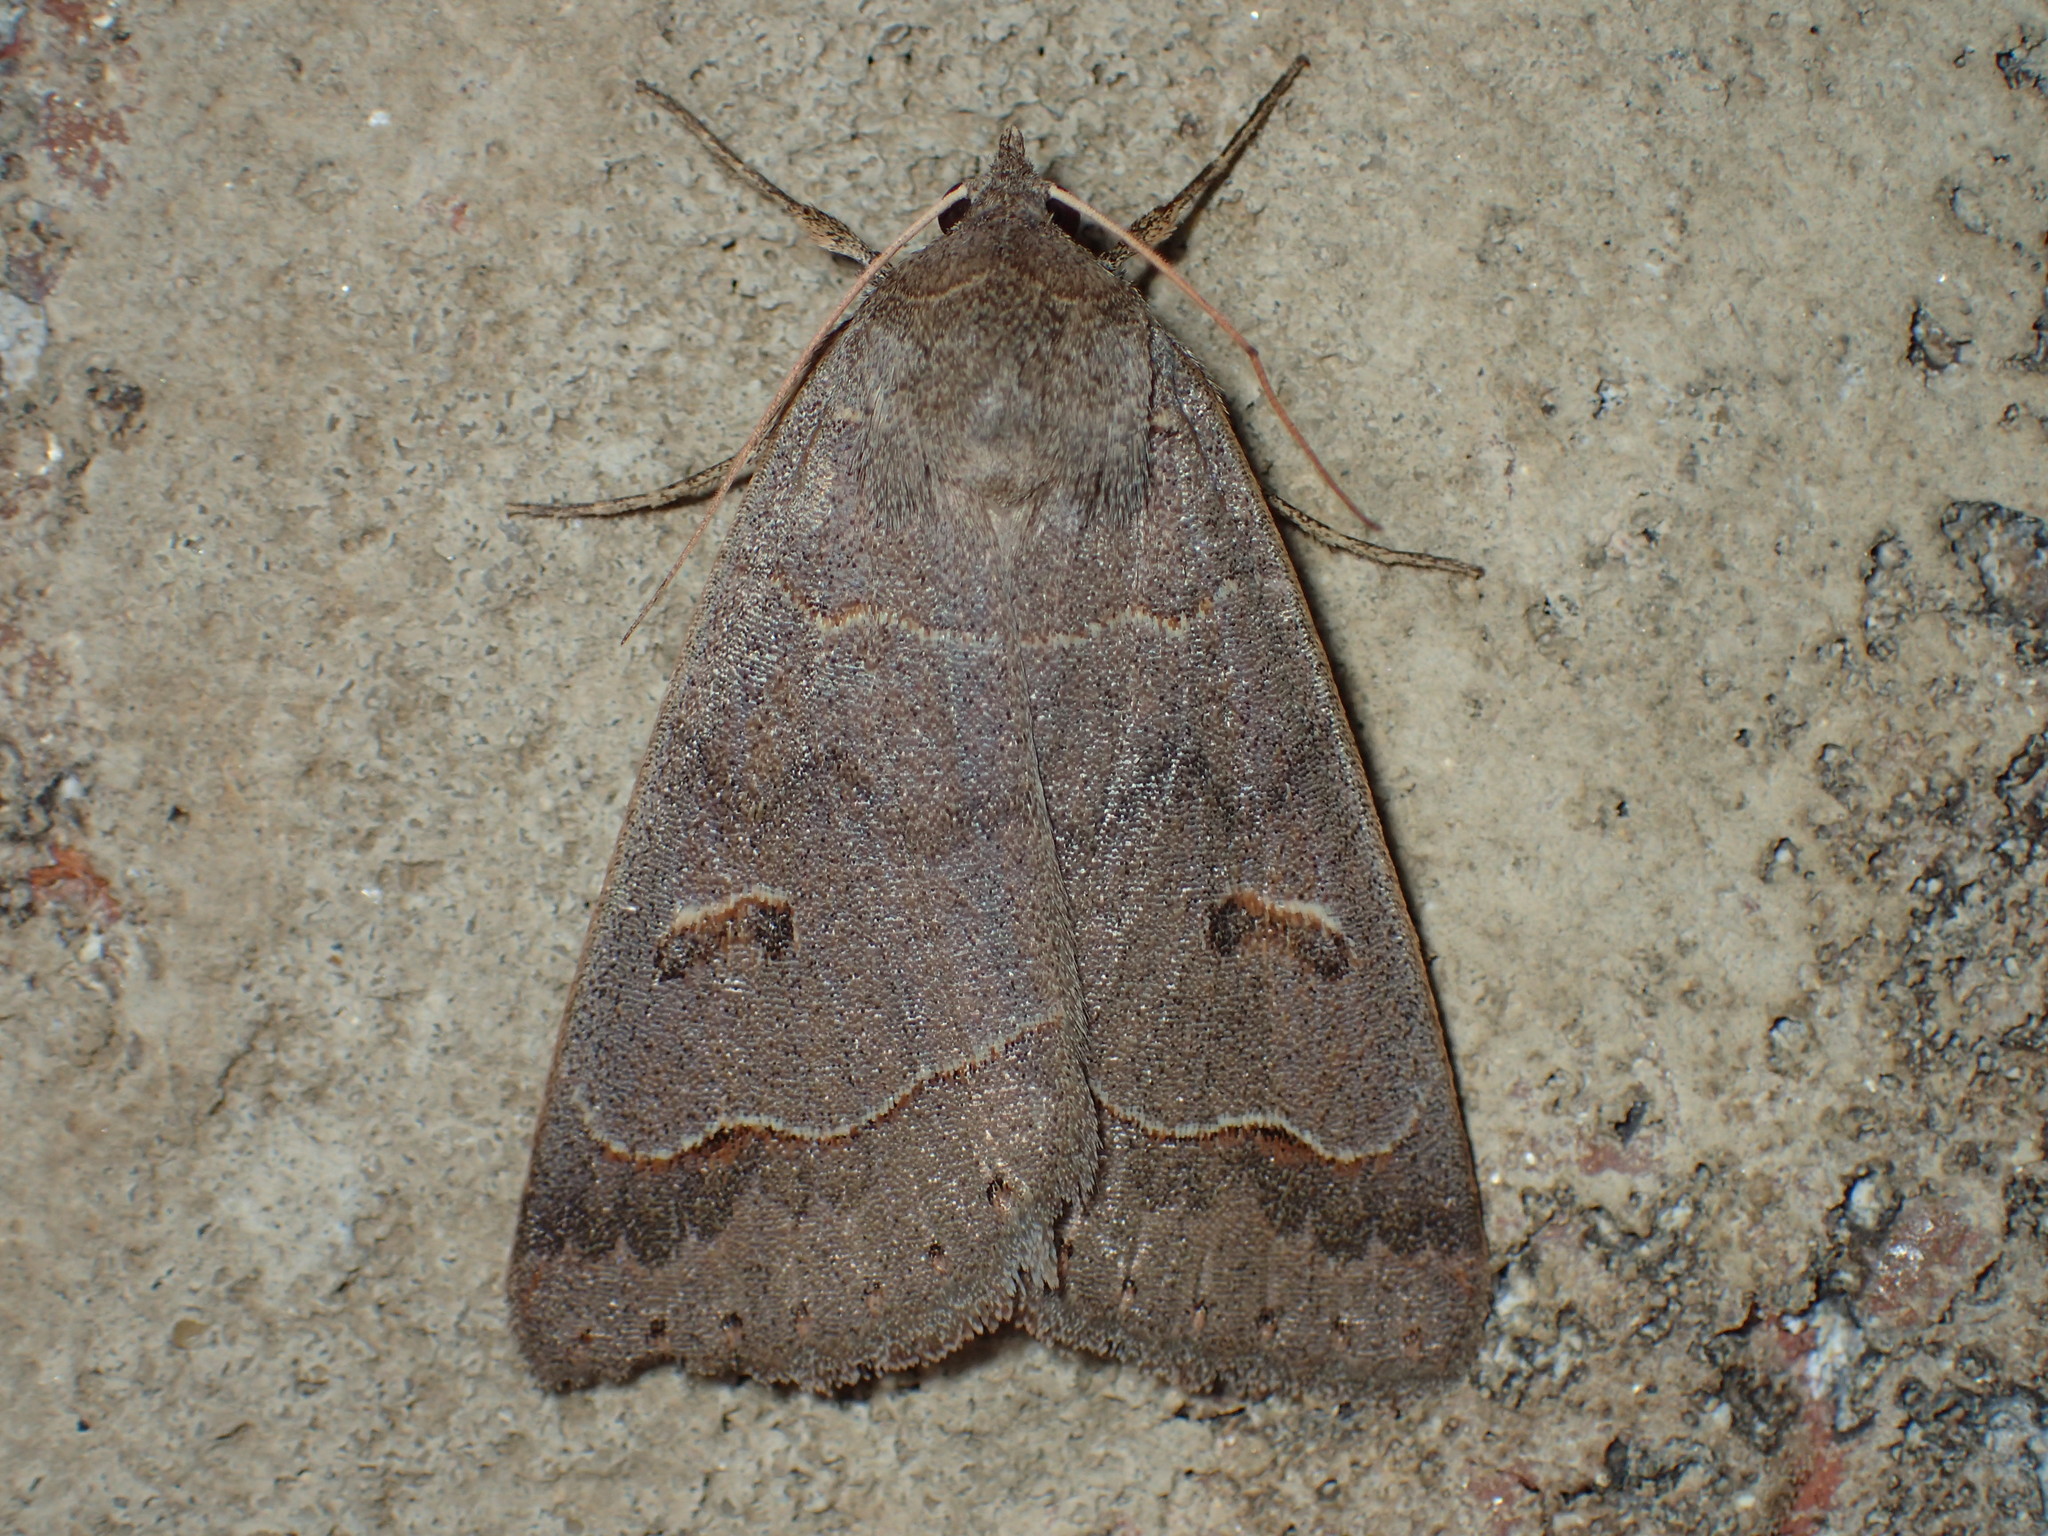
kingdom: Animalia
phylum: Arthropoda
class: Insecta
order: Lepidoptera
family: Erebidae
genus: Phoberia
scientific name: Phoberia atomaris
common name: Common oak moth
